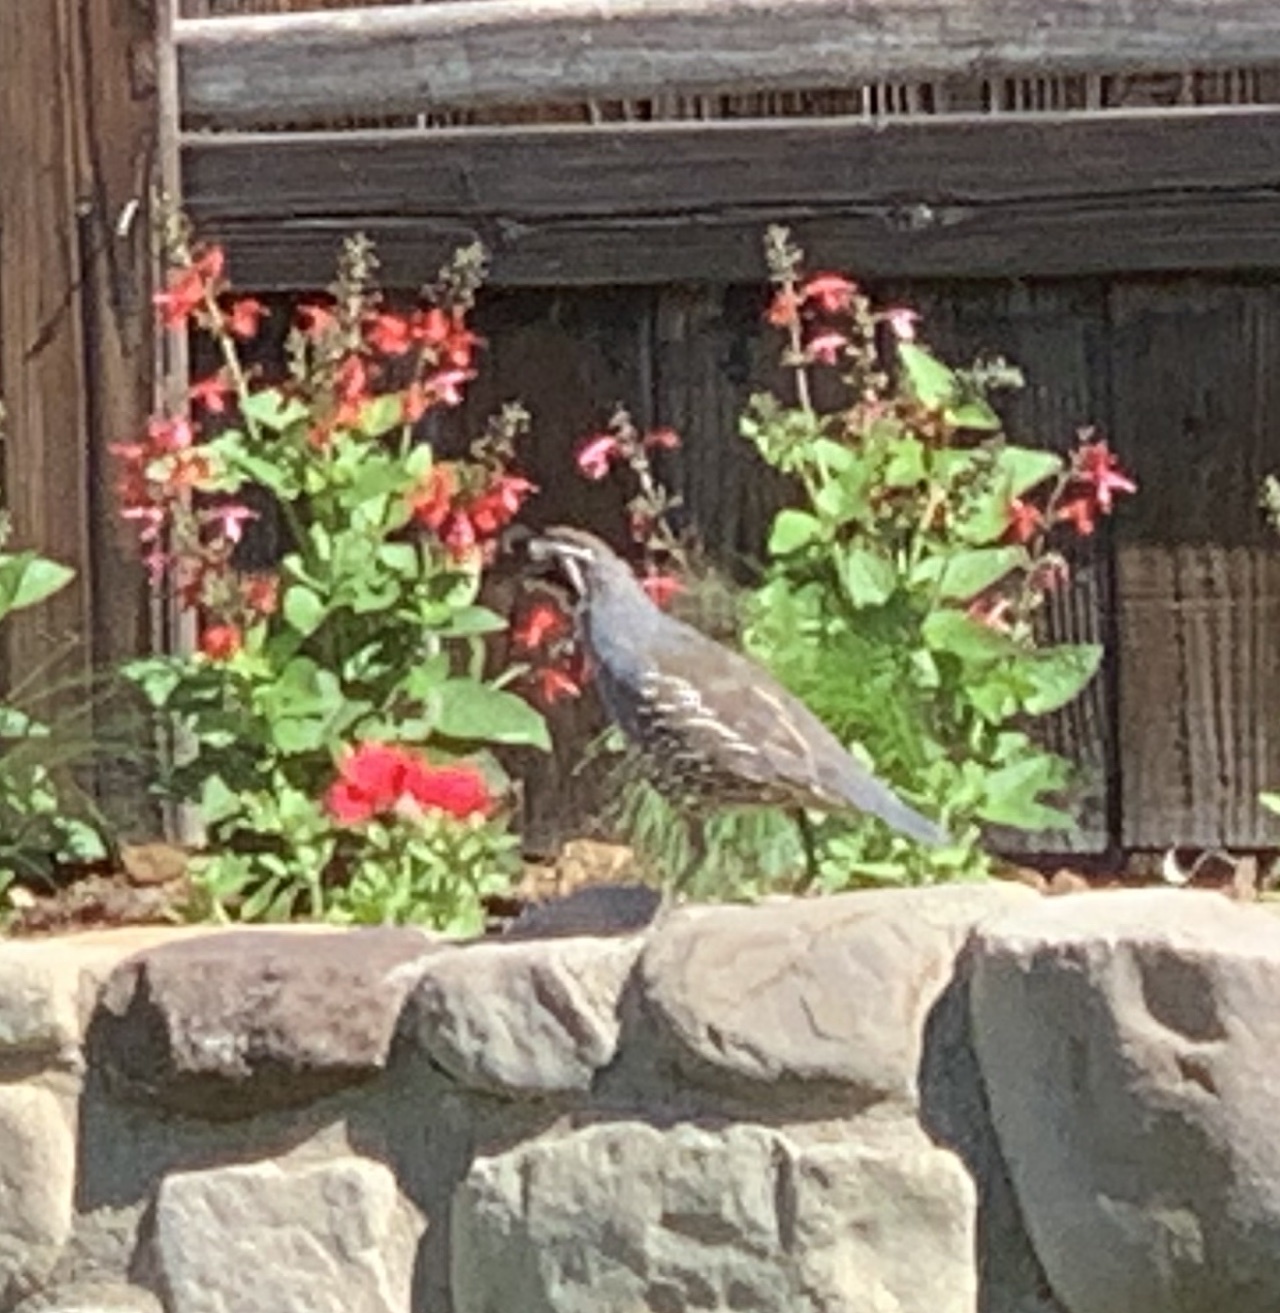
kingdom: Animalia
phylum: Chordata
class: Aves
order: Galliformes
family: Odontophoridae
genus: Callipepla
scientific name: Callipepla californica
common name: California quail
